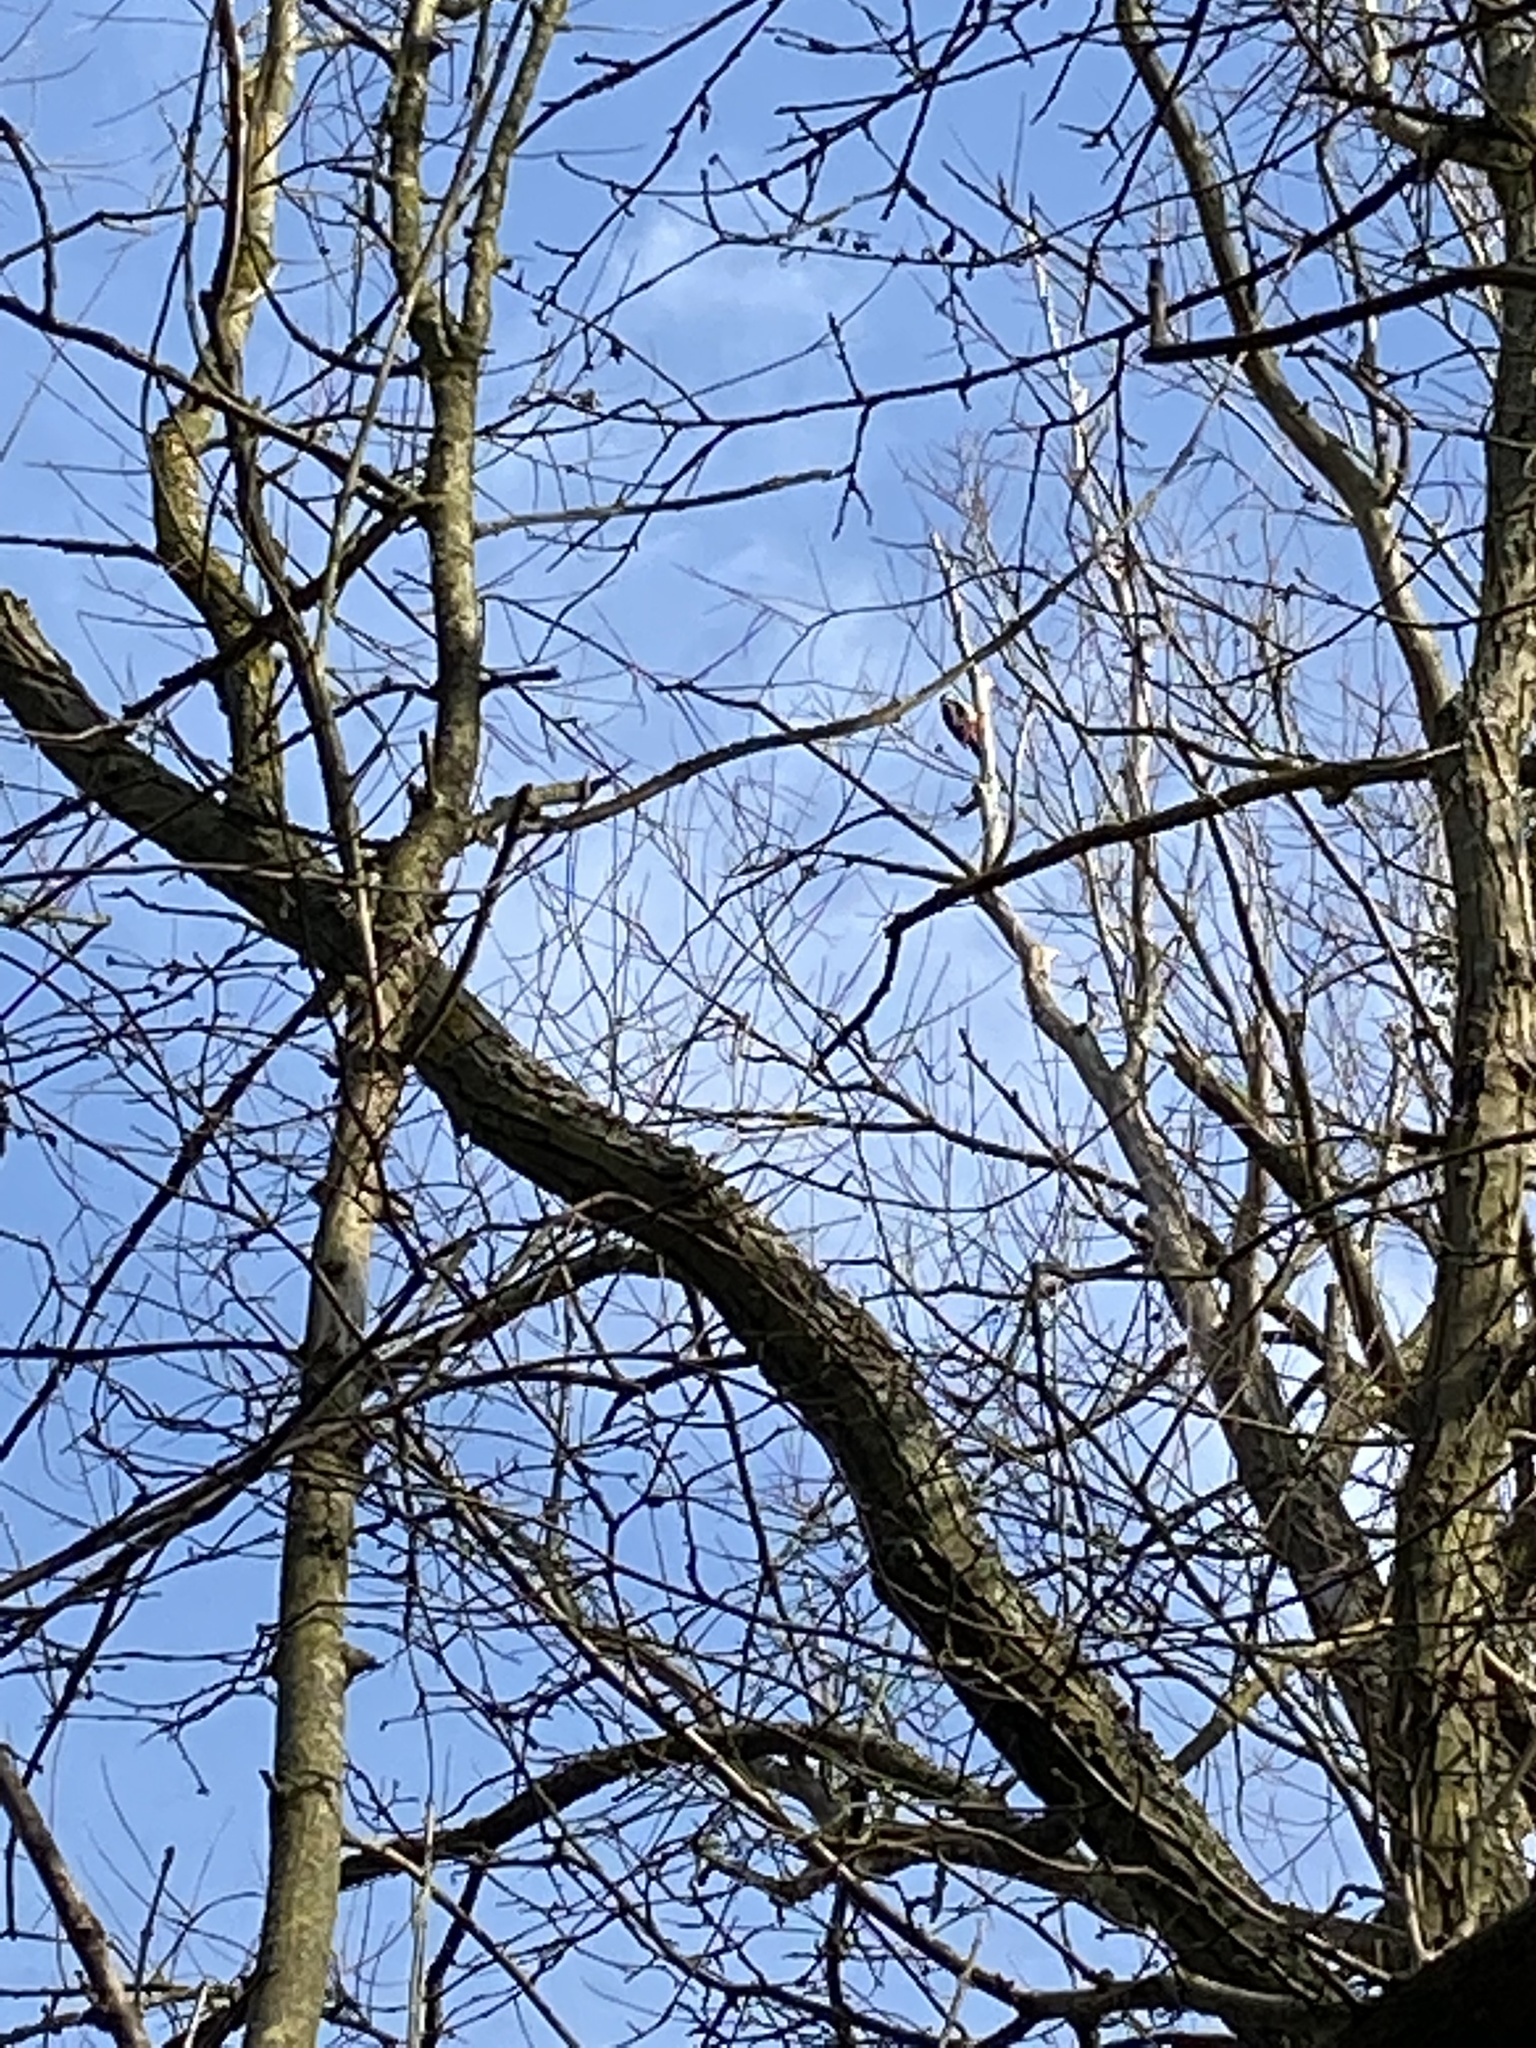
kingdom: Animalia
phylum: Chordata
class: Aves
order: Piciformes
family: Picidae
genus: Dendrocopos
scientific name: Dendrocopos major
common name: Great spotted woodpecker
